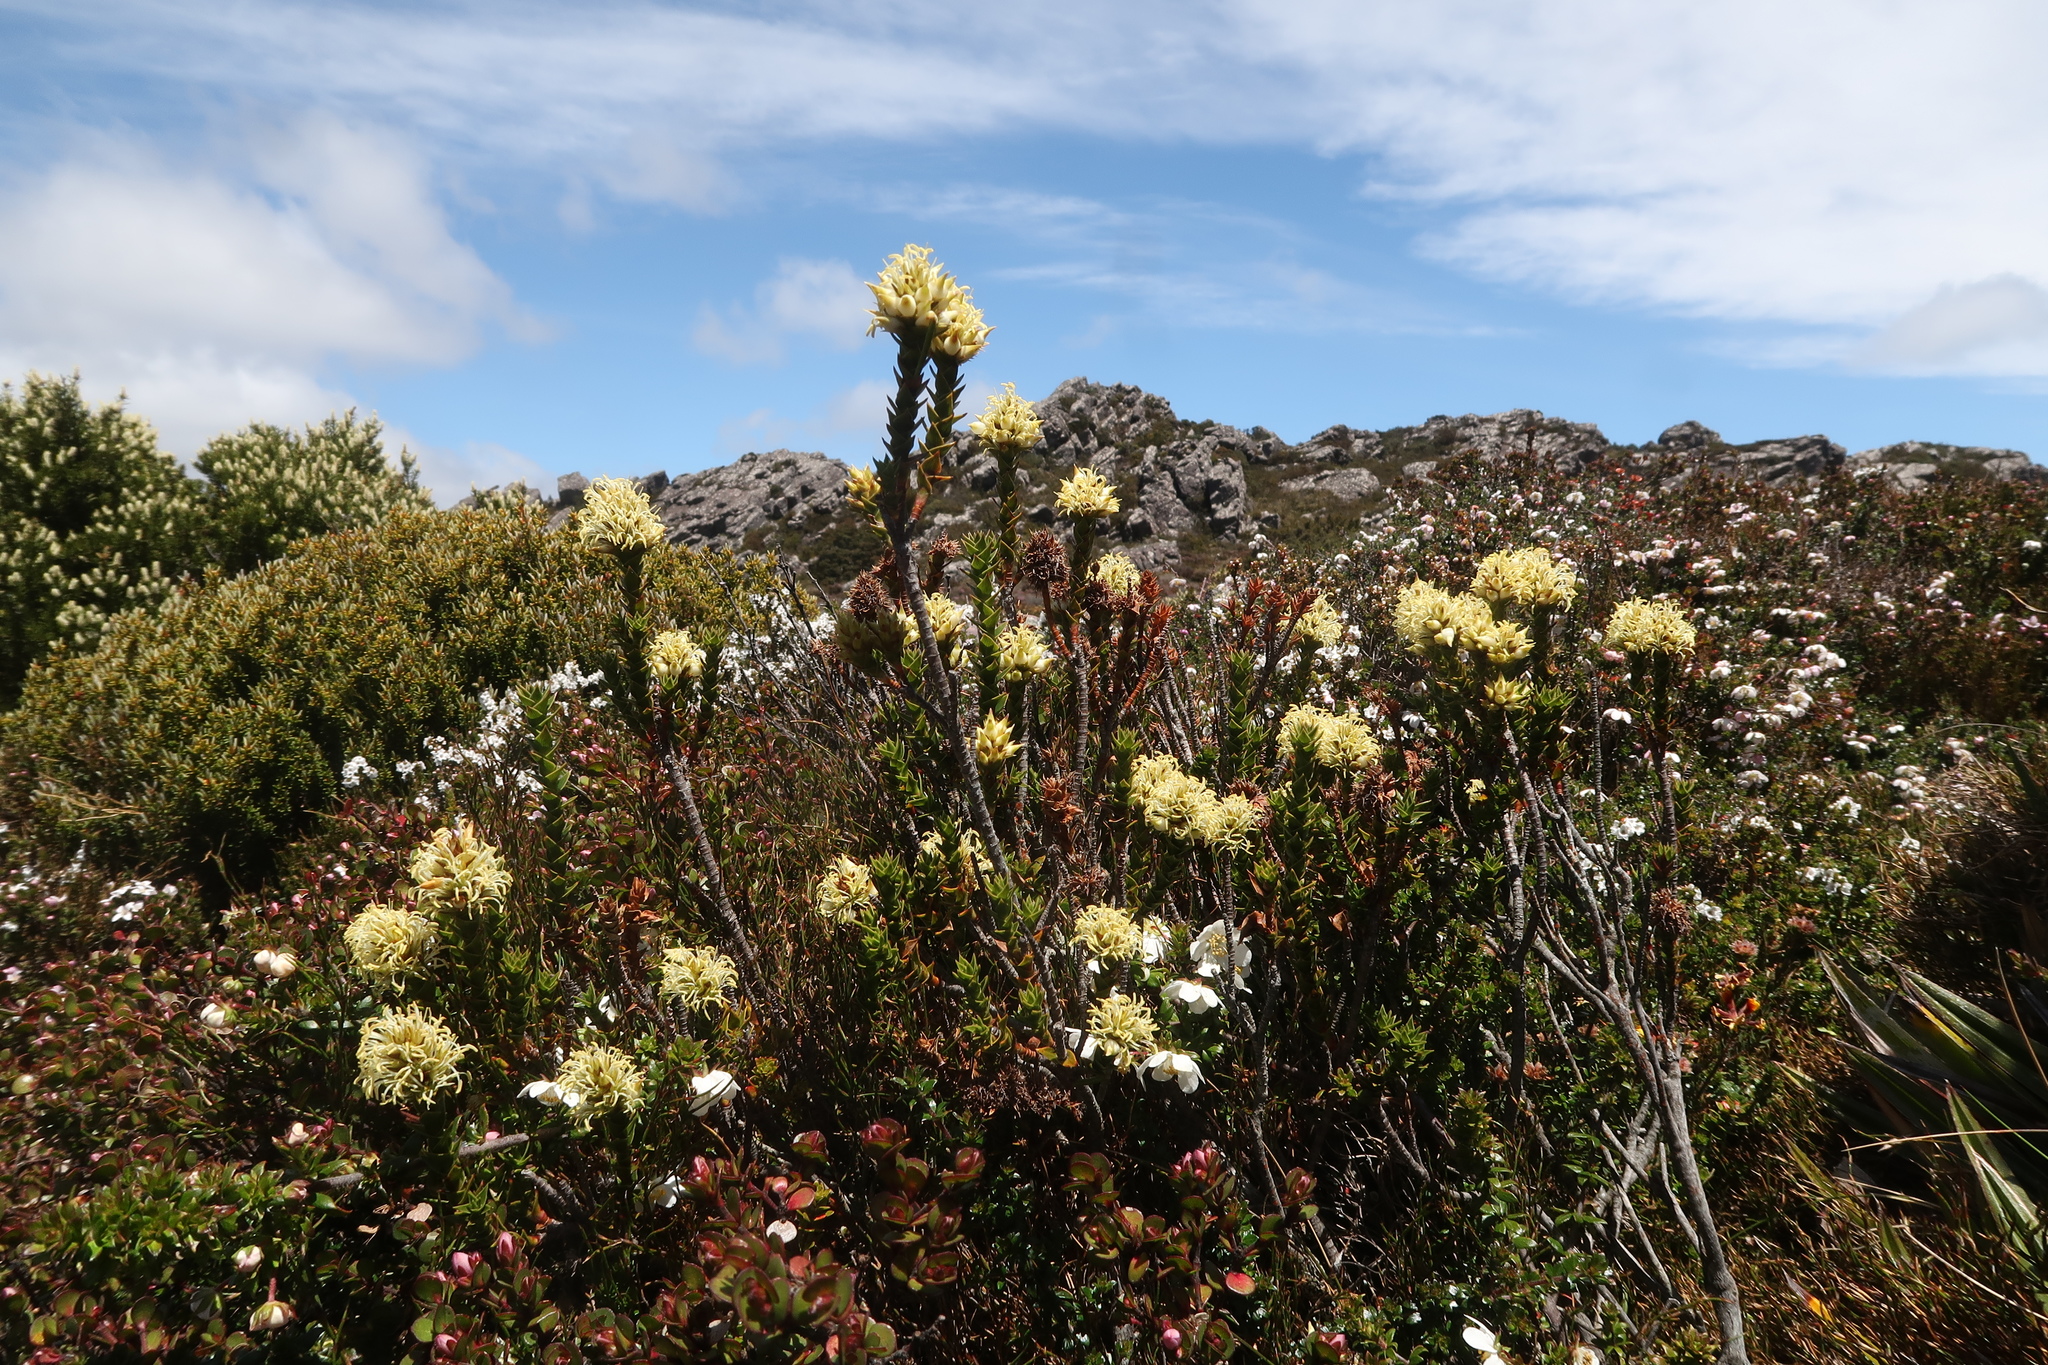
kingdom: Plantae
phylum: Tracheophyta
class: Magnoliopsida
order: Ericales
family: Ericaceae
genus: Dracophyllum
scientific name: Dracophyllum sprengelioides
